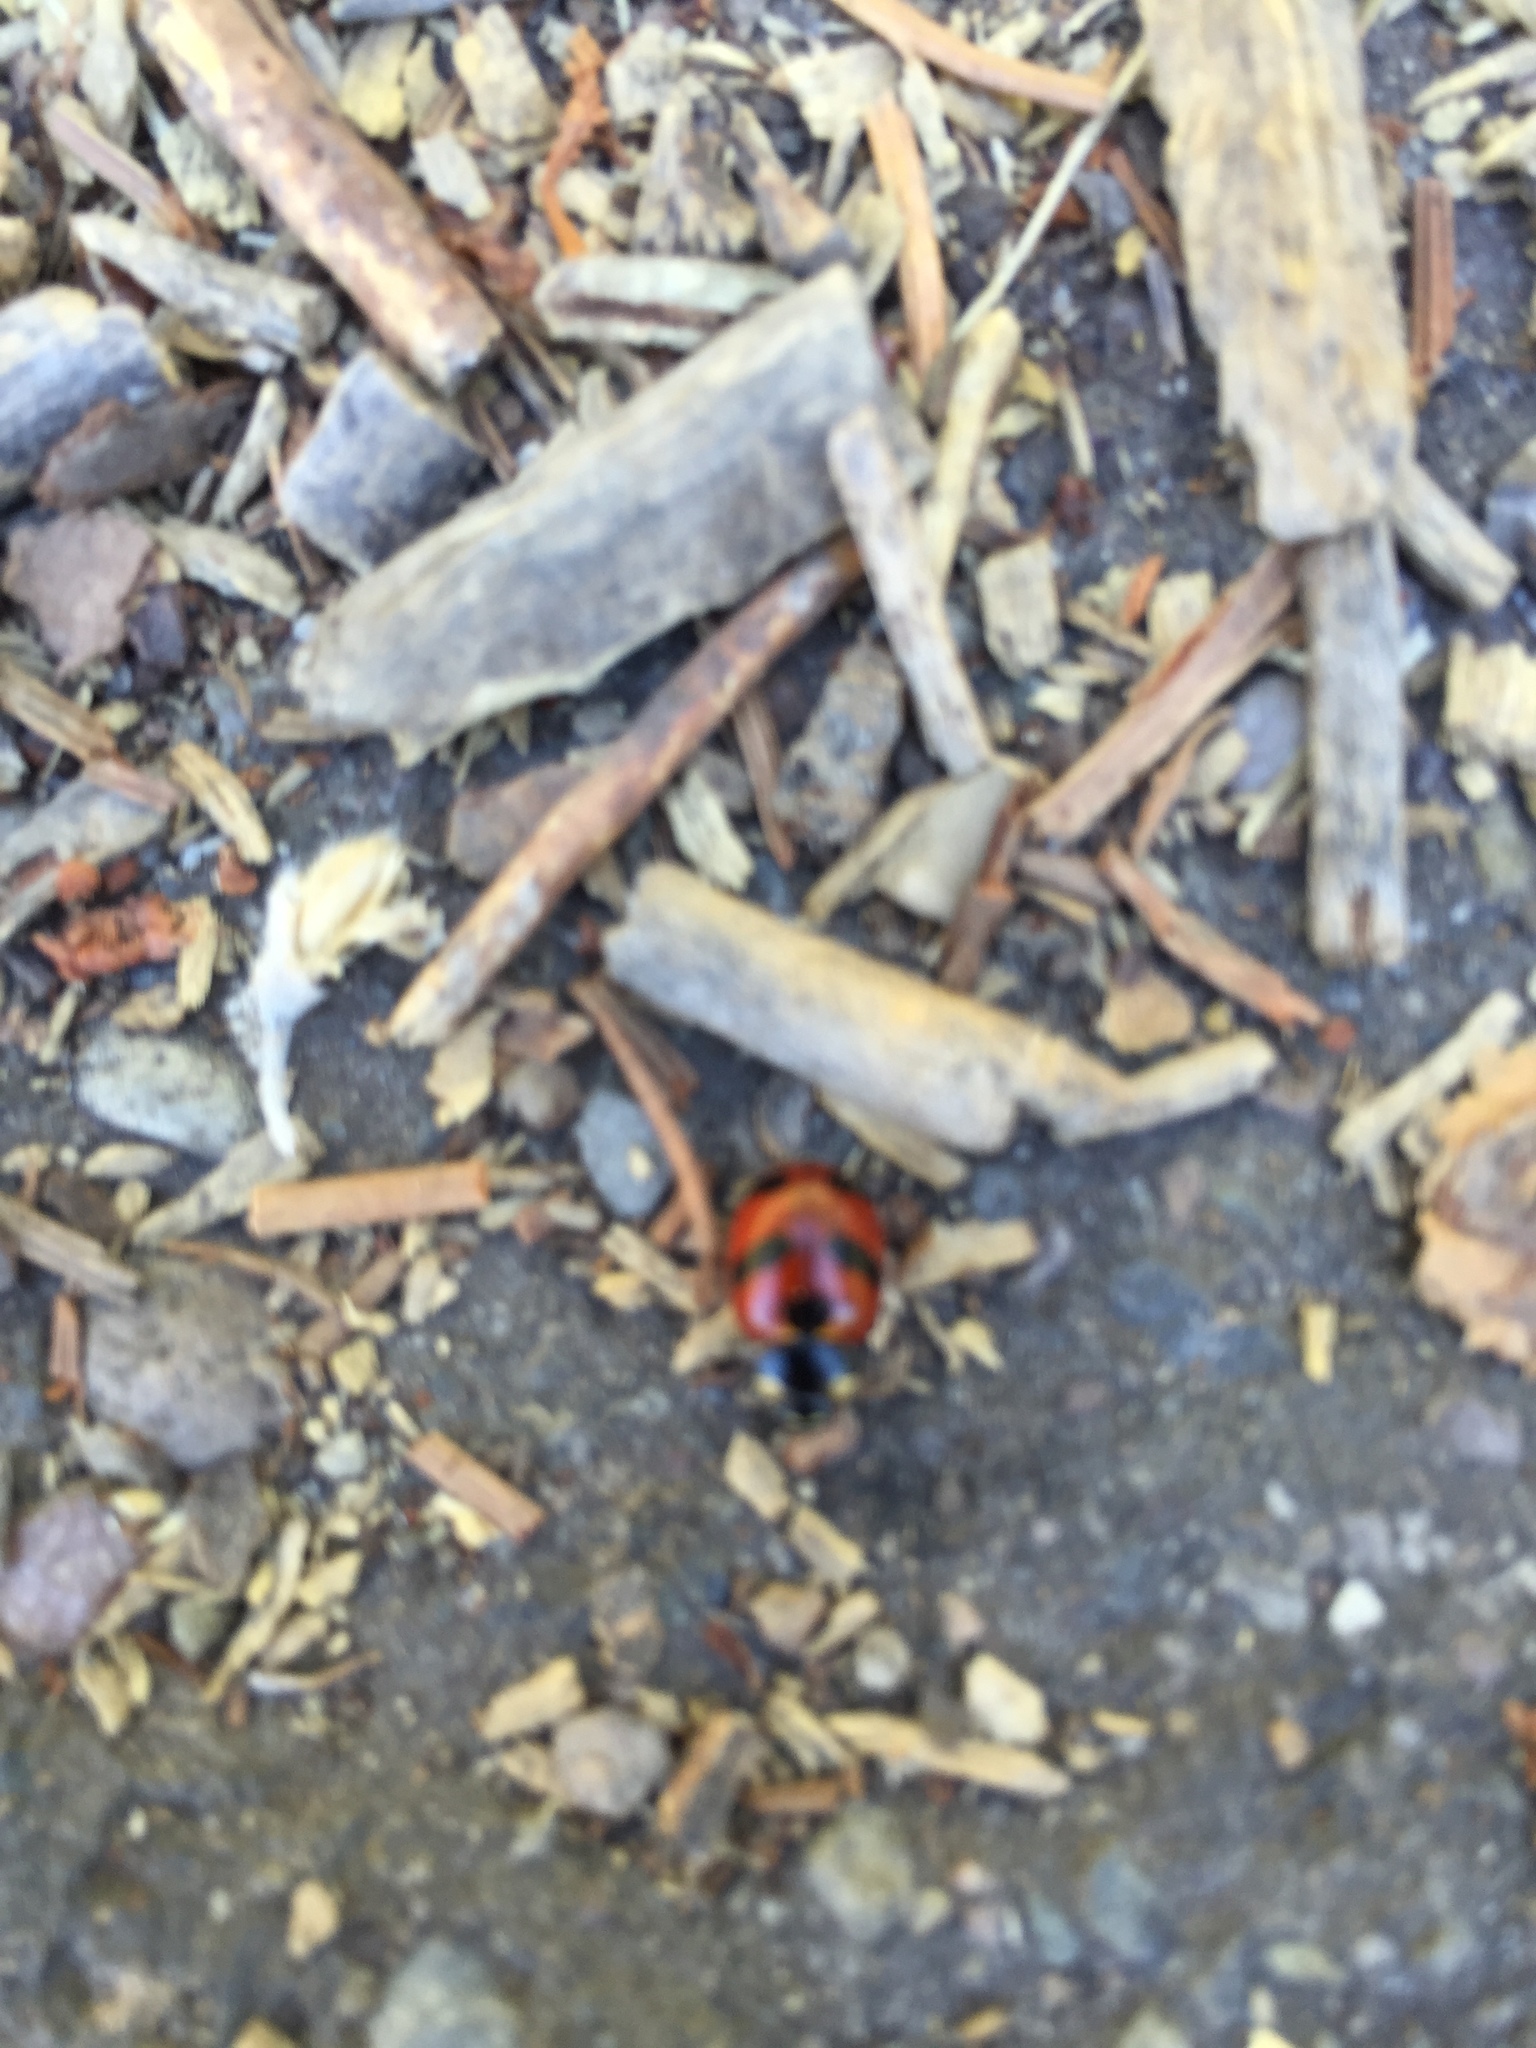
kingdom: Animalia
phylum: Arthropoda
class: Insecta
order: Coleoptera
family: Coccinellidae
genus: Coccinella
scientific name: Coccinella monticola
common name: Mountain lady beetle
